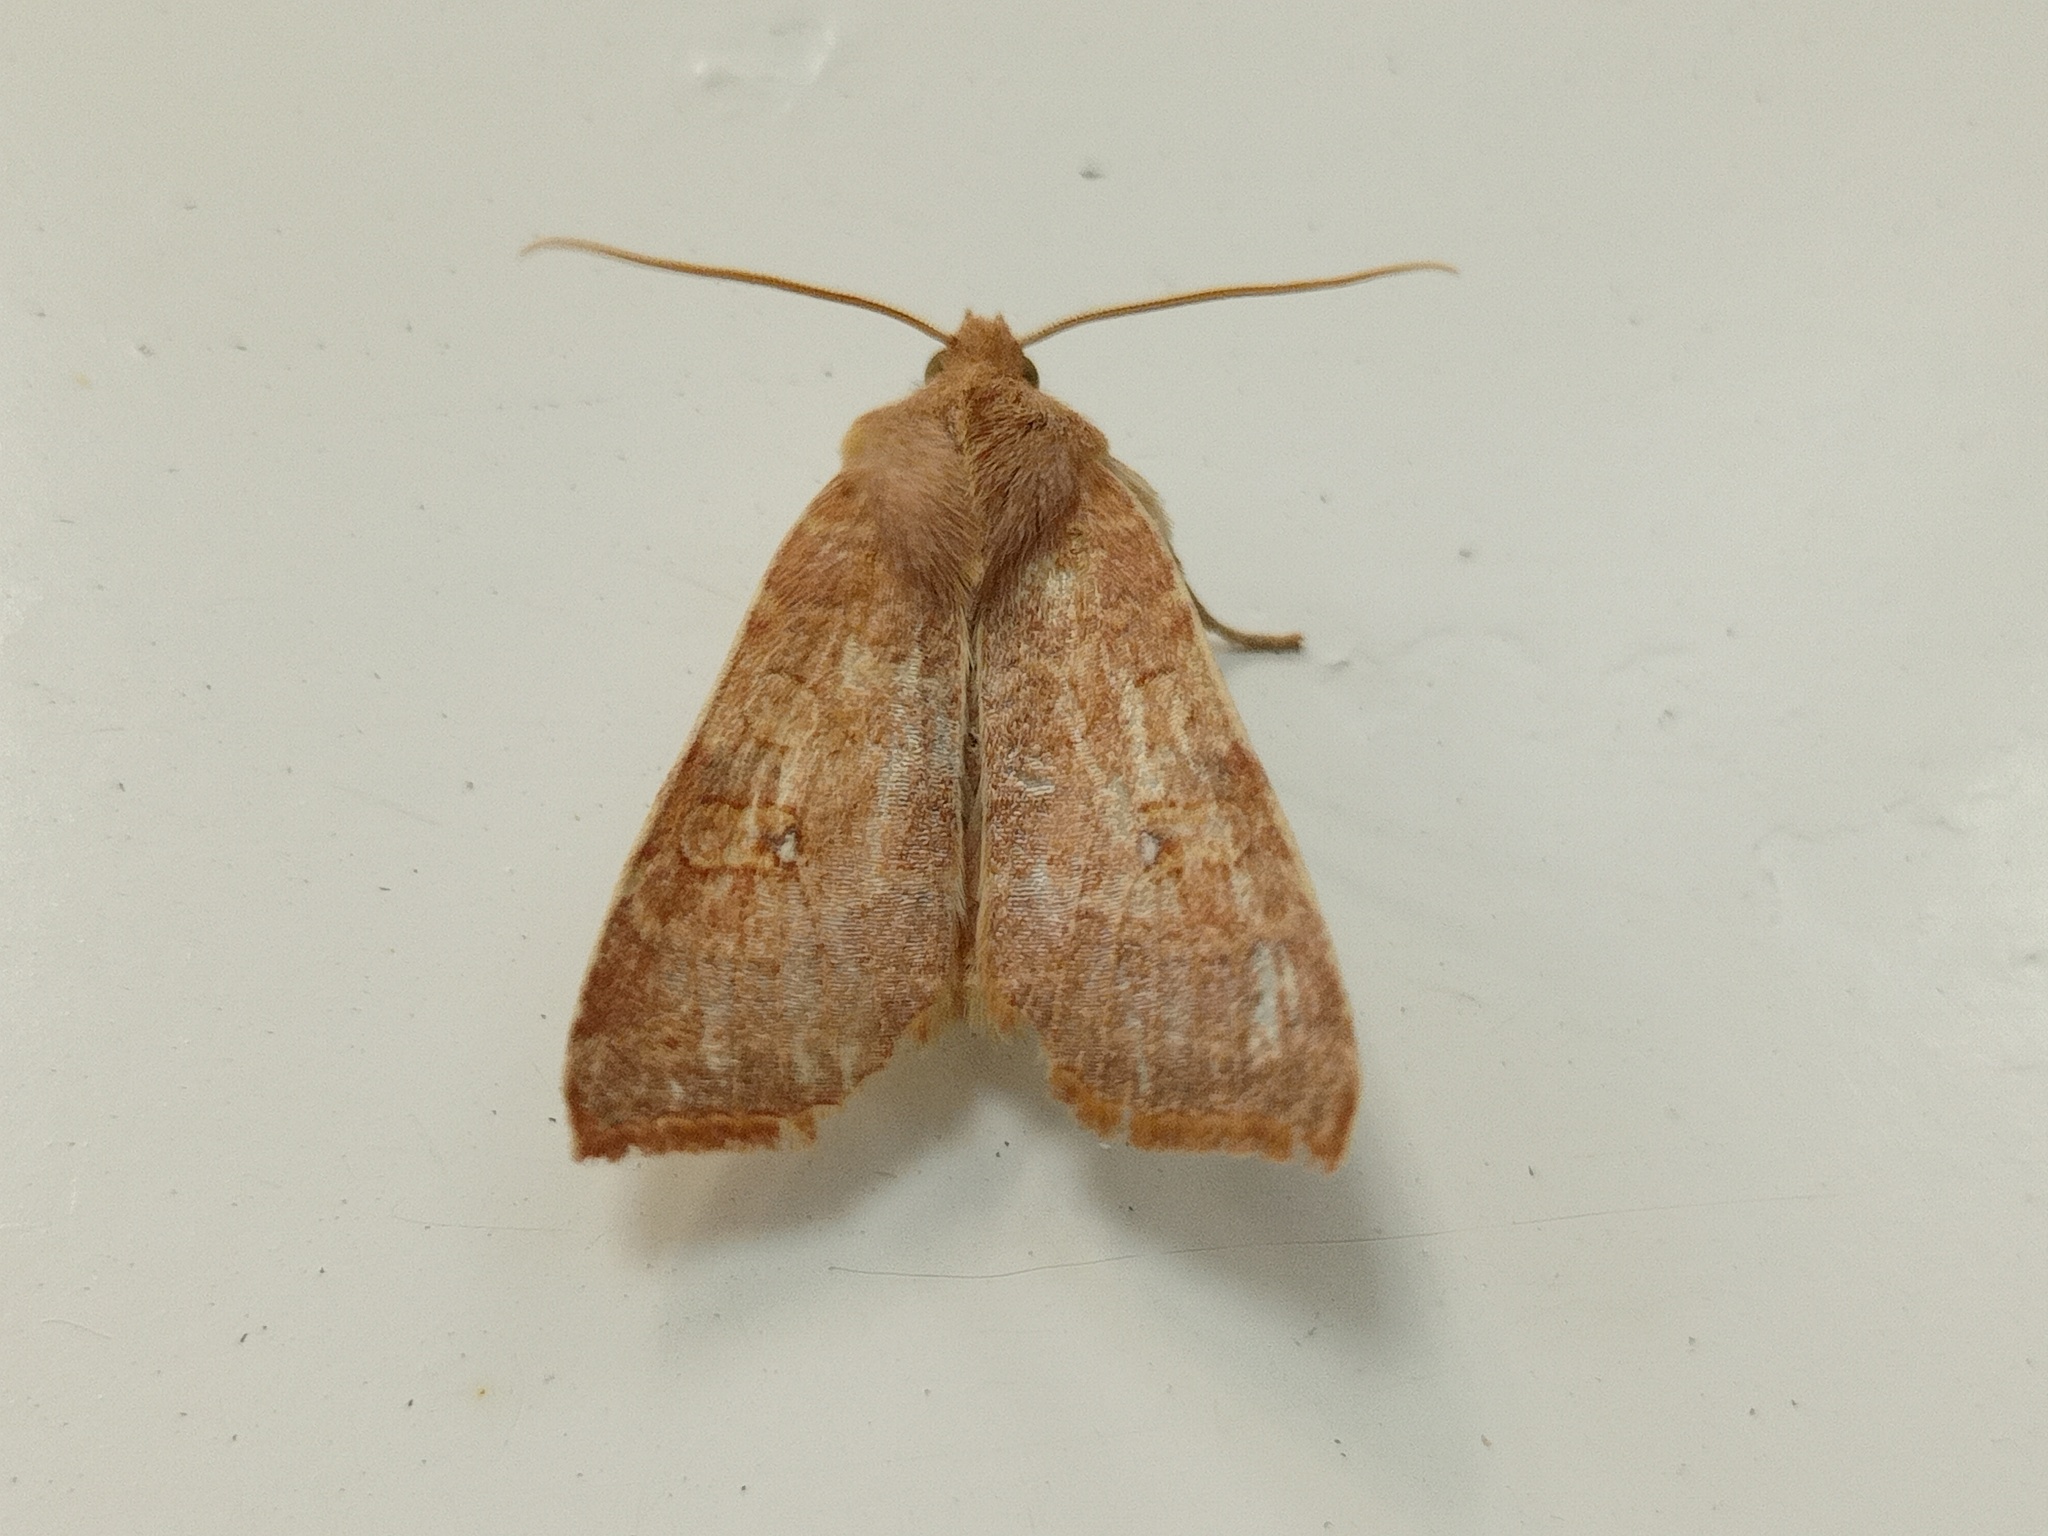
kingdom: Animalia
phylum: Arthropoda
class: Insecta
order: Lepidoptera
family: Noctuidae
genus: Xanthia
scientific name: Xanthia ocellaris
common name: Pale-lemon sallow
